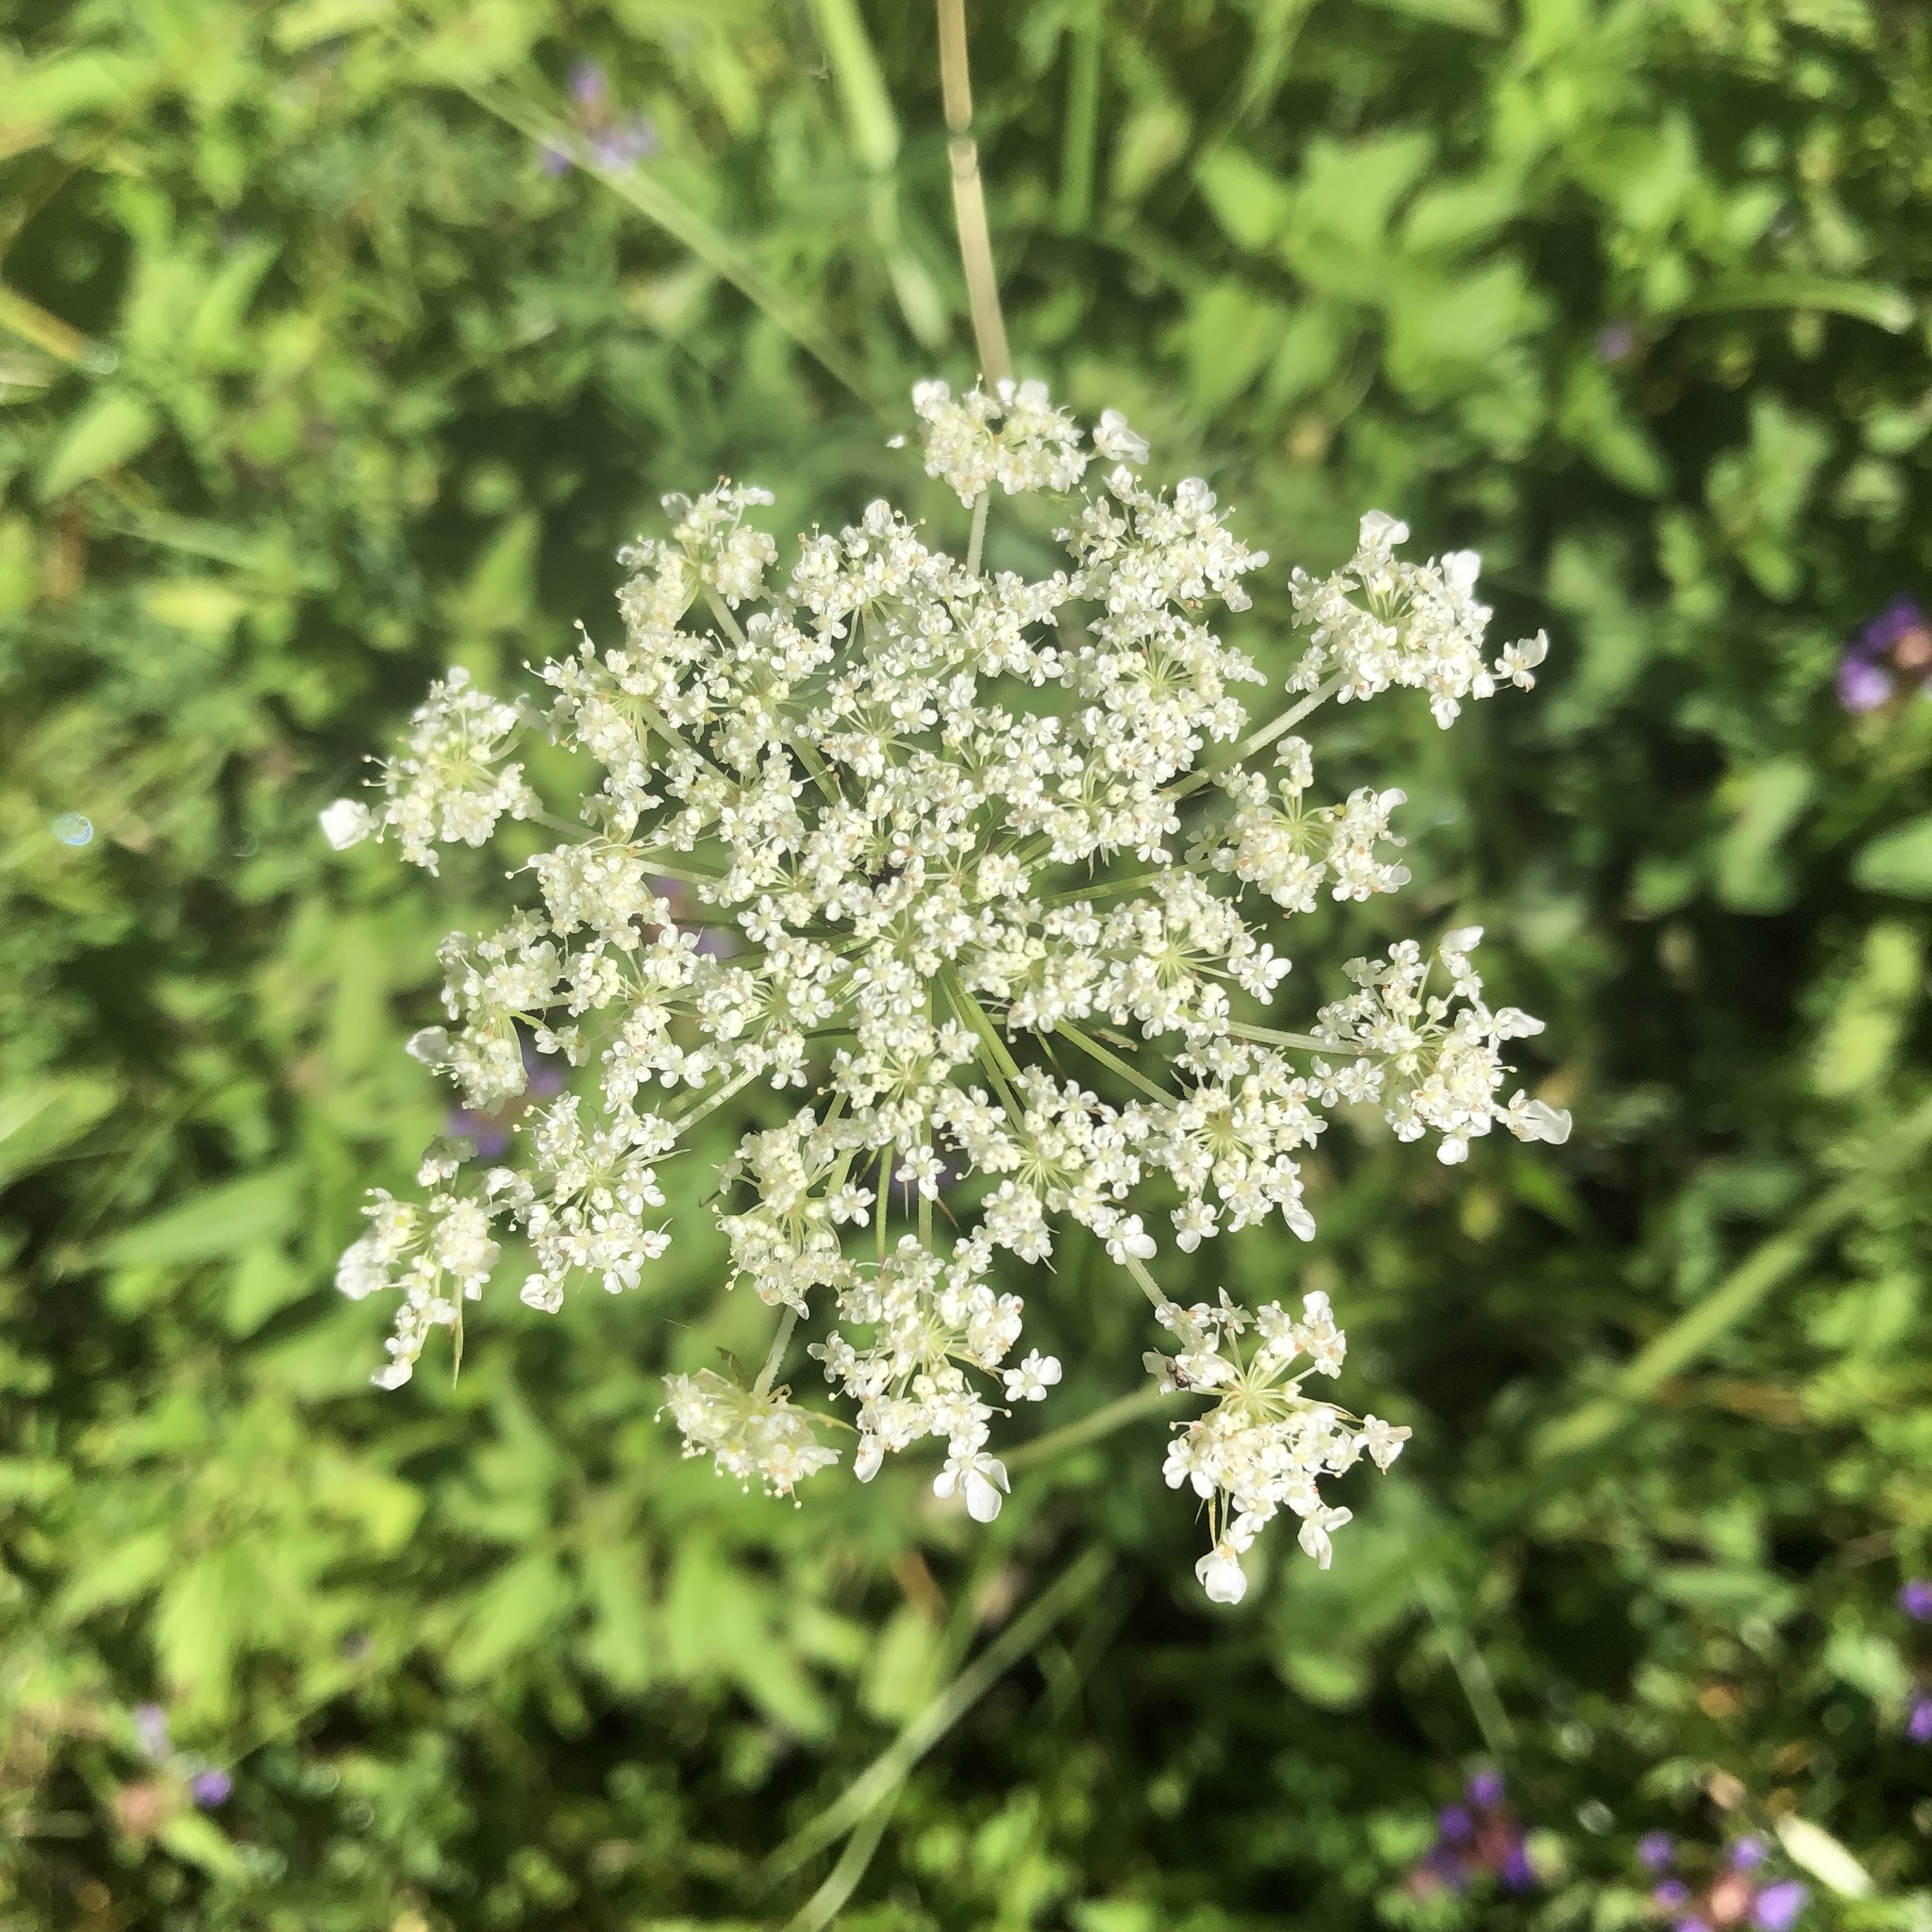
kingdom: Plantae
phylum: Tracheophyta
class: Magnoliopsida
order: Apiales
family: Apiaceae
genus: Daucus
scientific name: Daucus carota
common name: Wild carrot
